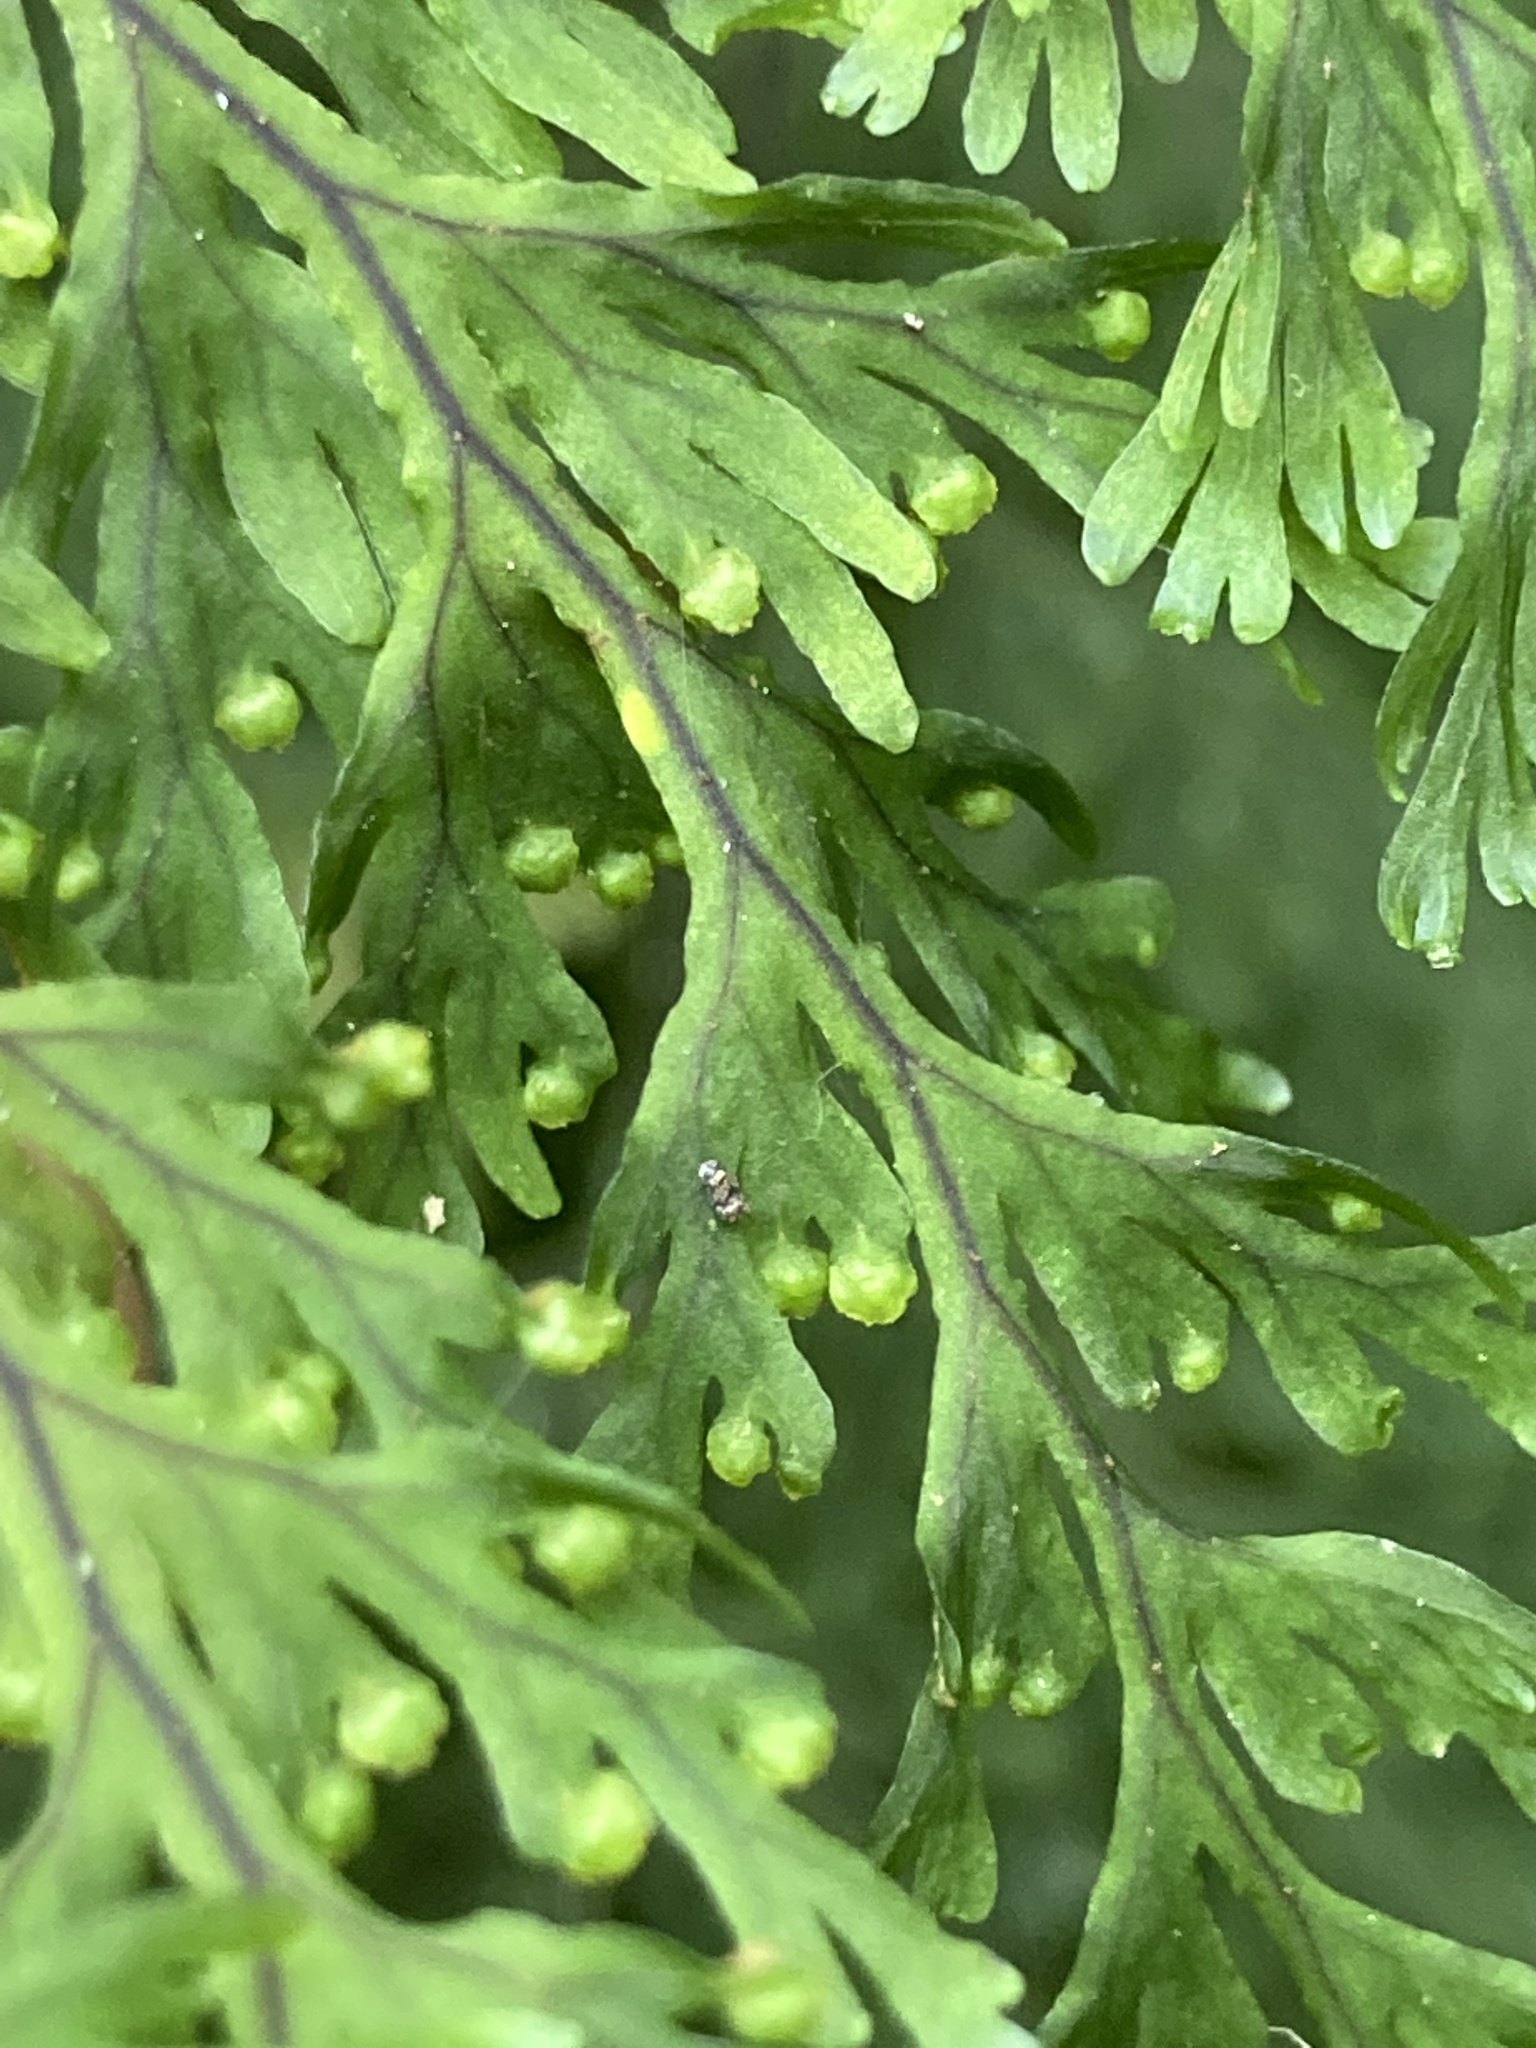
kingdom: Plantae
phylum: Tracheophyta
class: Polypodiopsida
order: Hymenophyllales
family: Hymenophyllaceae
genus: Hymenophyllum
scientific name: Hymenophyllum pulcherrimum
